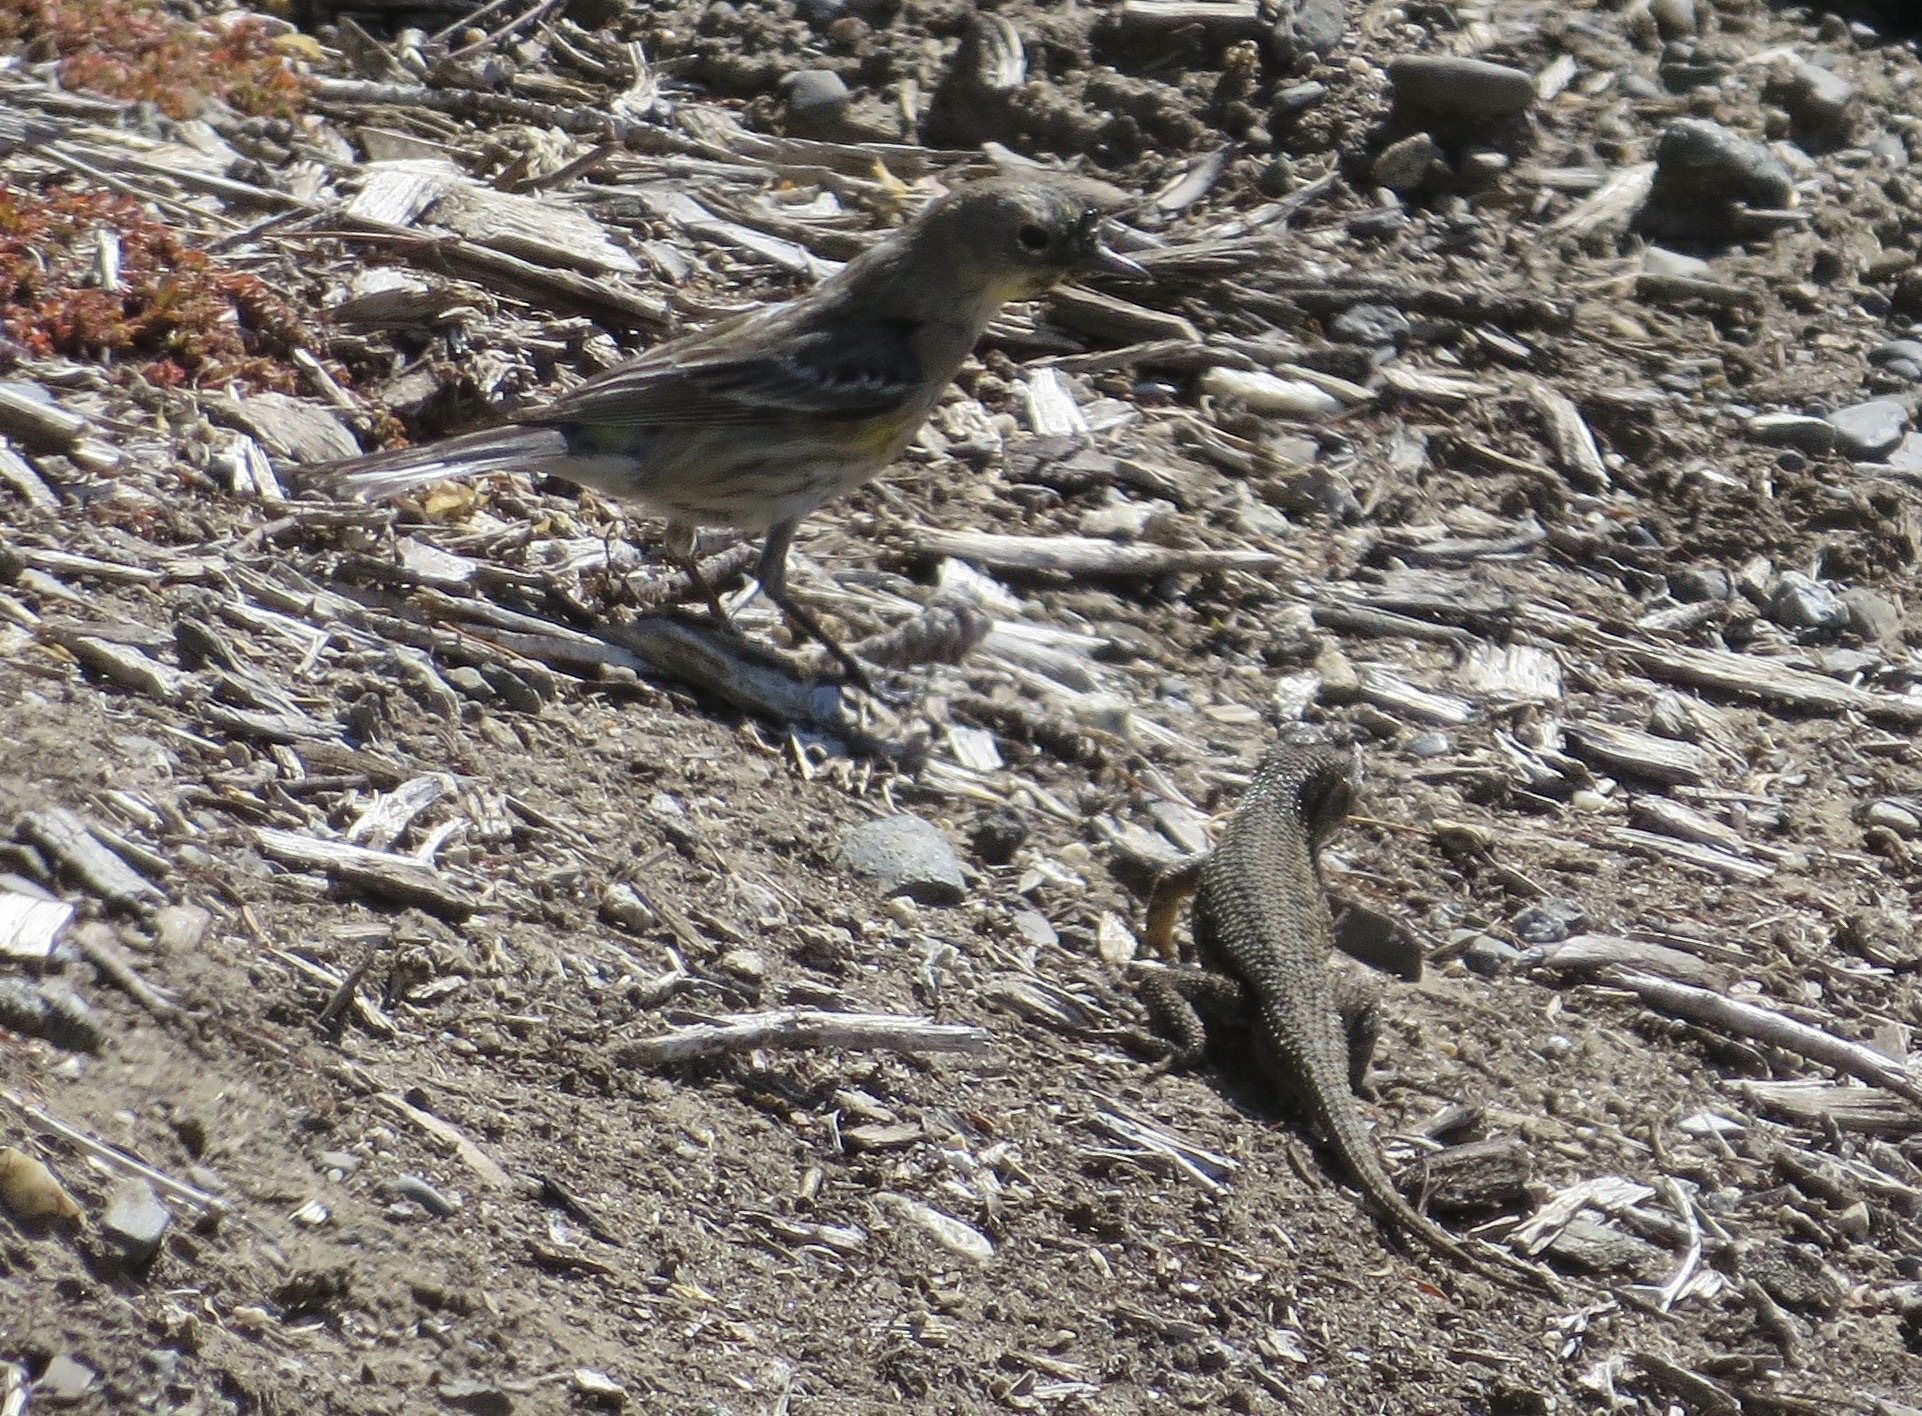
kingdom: Animalia
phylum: Chordata
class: Squamata
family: Phrynosomatidae
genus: Sceloporus
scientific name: Sceloporus occidentalis
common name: Western fence lizard
